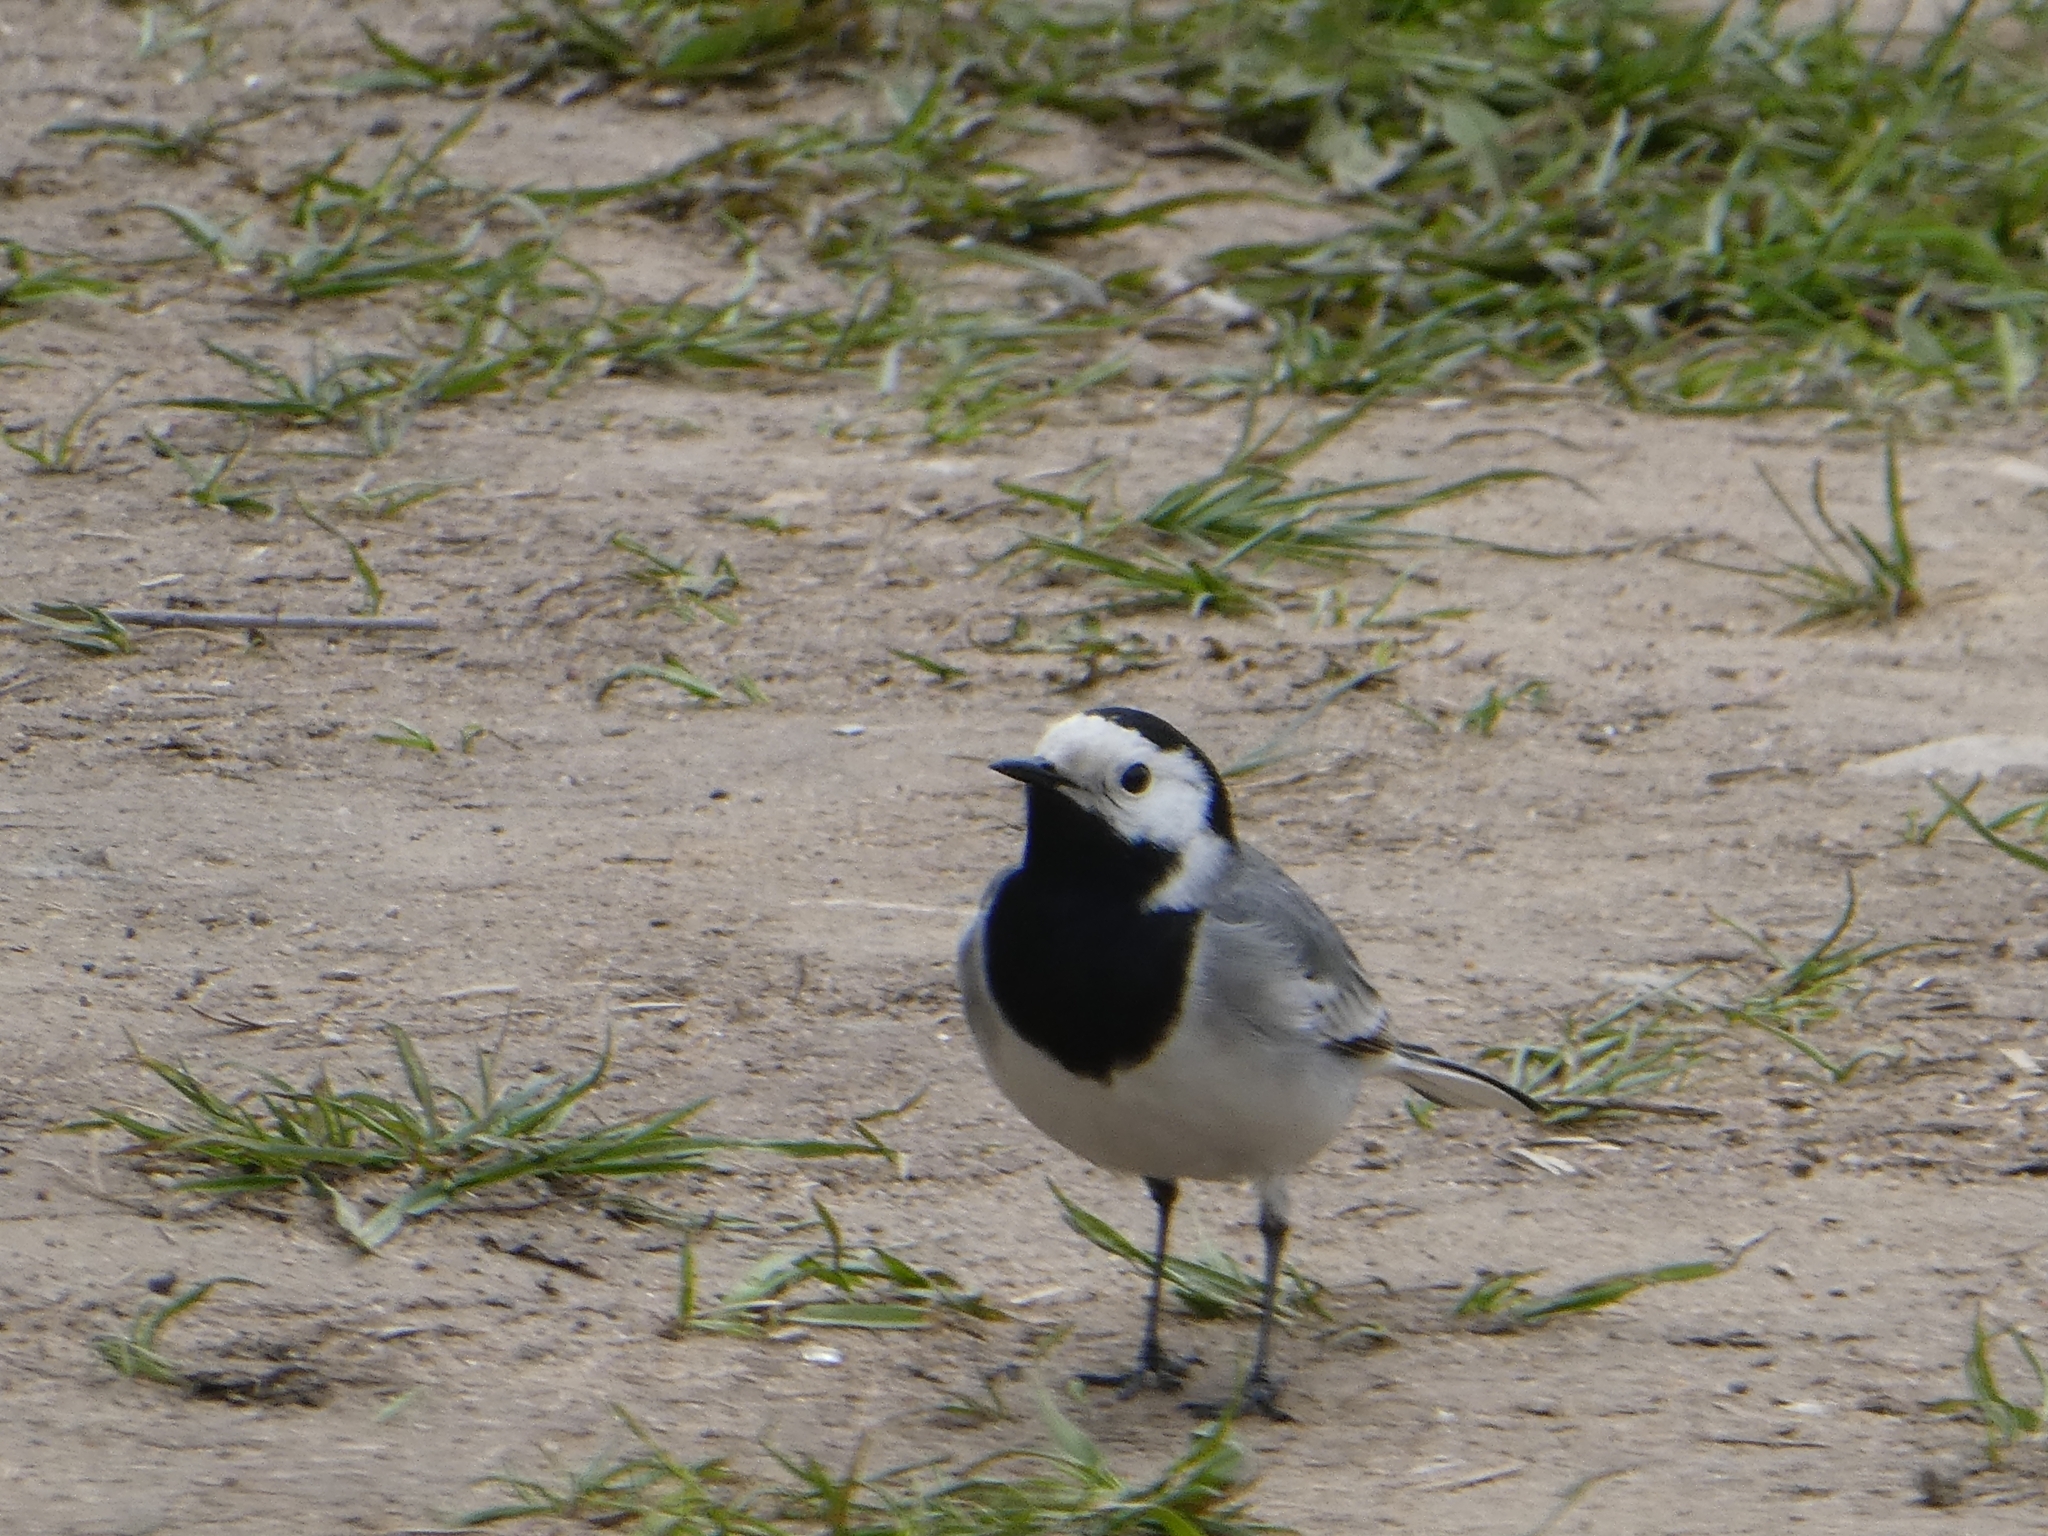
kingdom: Animalia
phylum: Chordata
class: Aves
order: Passeriformes
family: Motacillidae
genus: Motacilla
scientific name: Motacilla alba
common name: White wagtail
